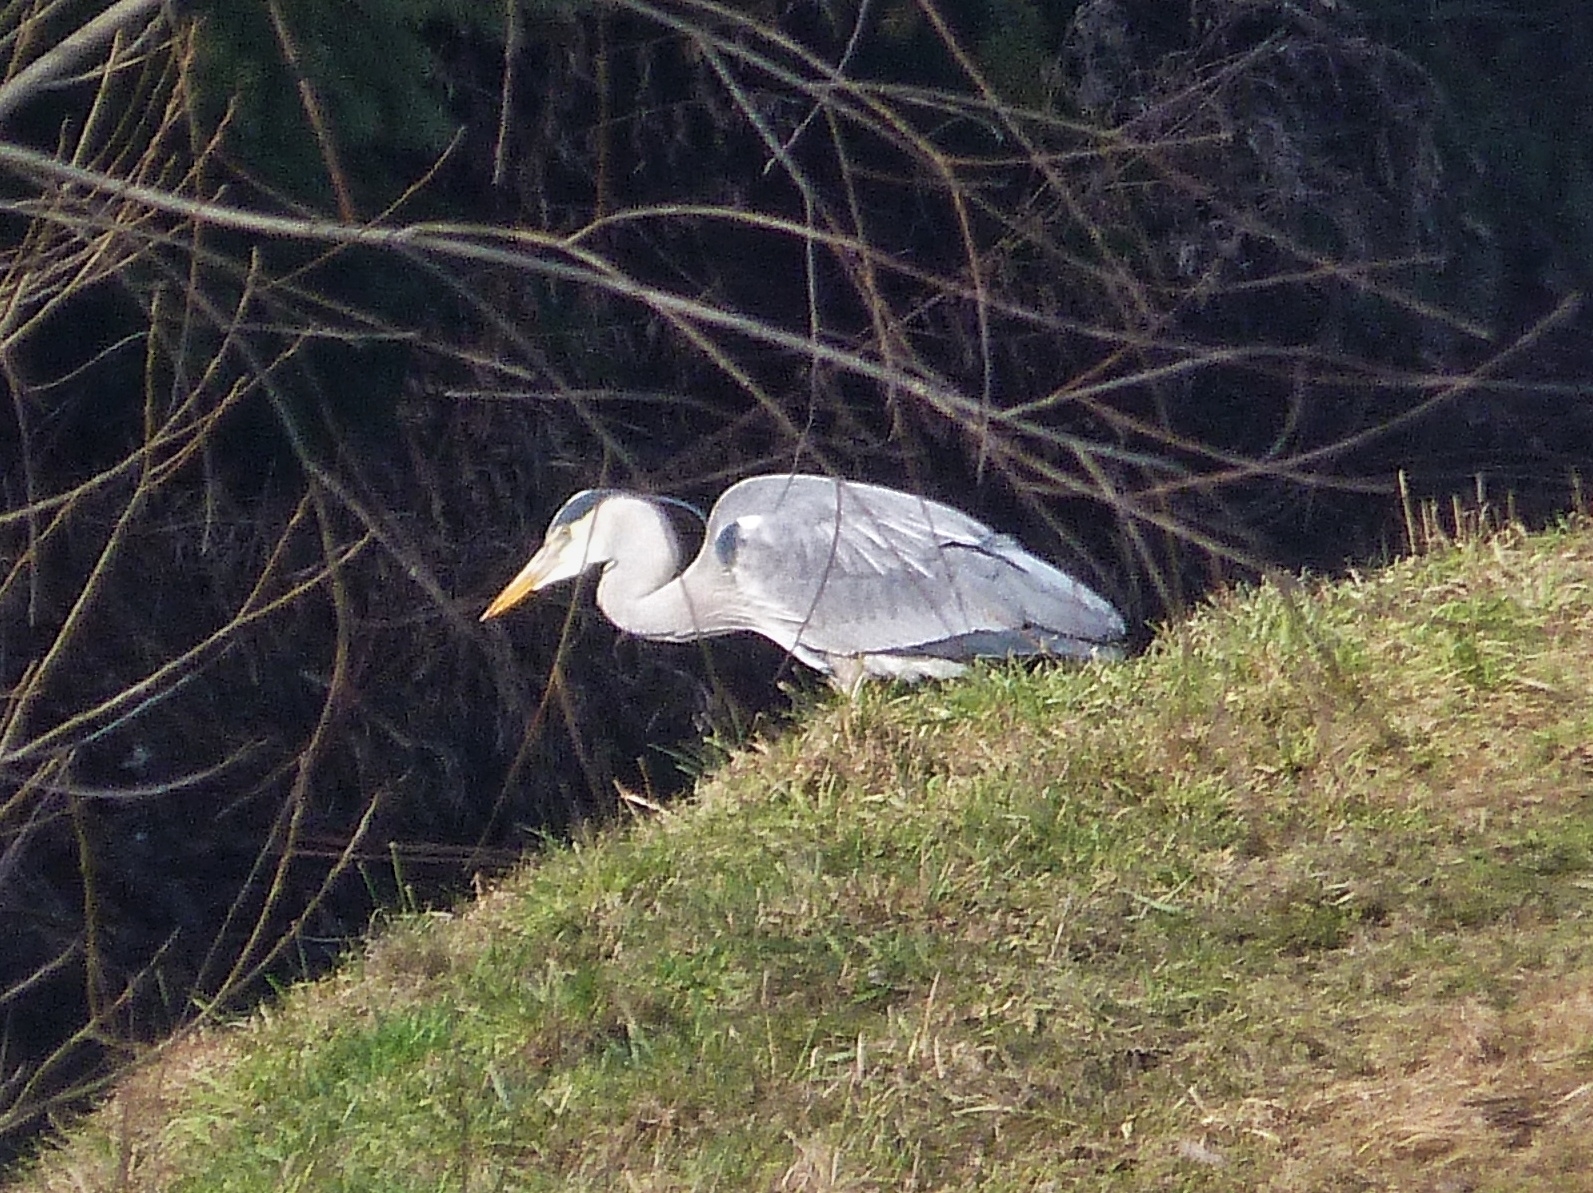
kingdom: Animalia
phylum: Chordata
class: Aves
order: Pelecaniformes
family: Ardeidae
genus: Ardea
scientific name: Ardea cinerea
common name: Grey heron
